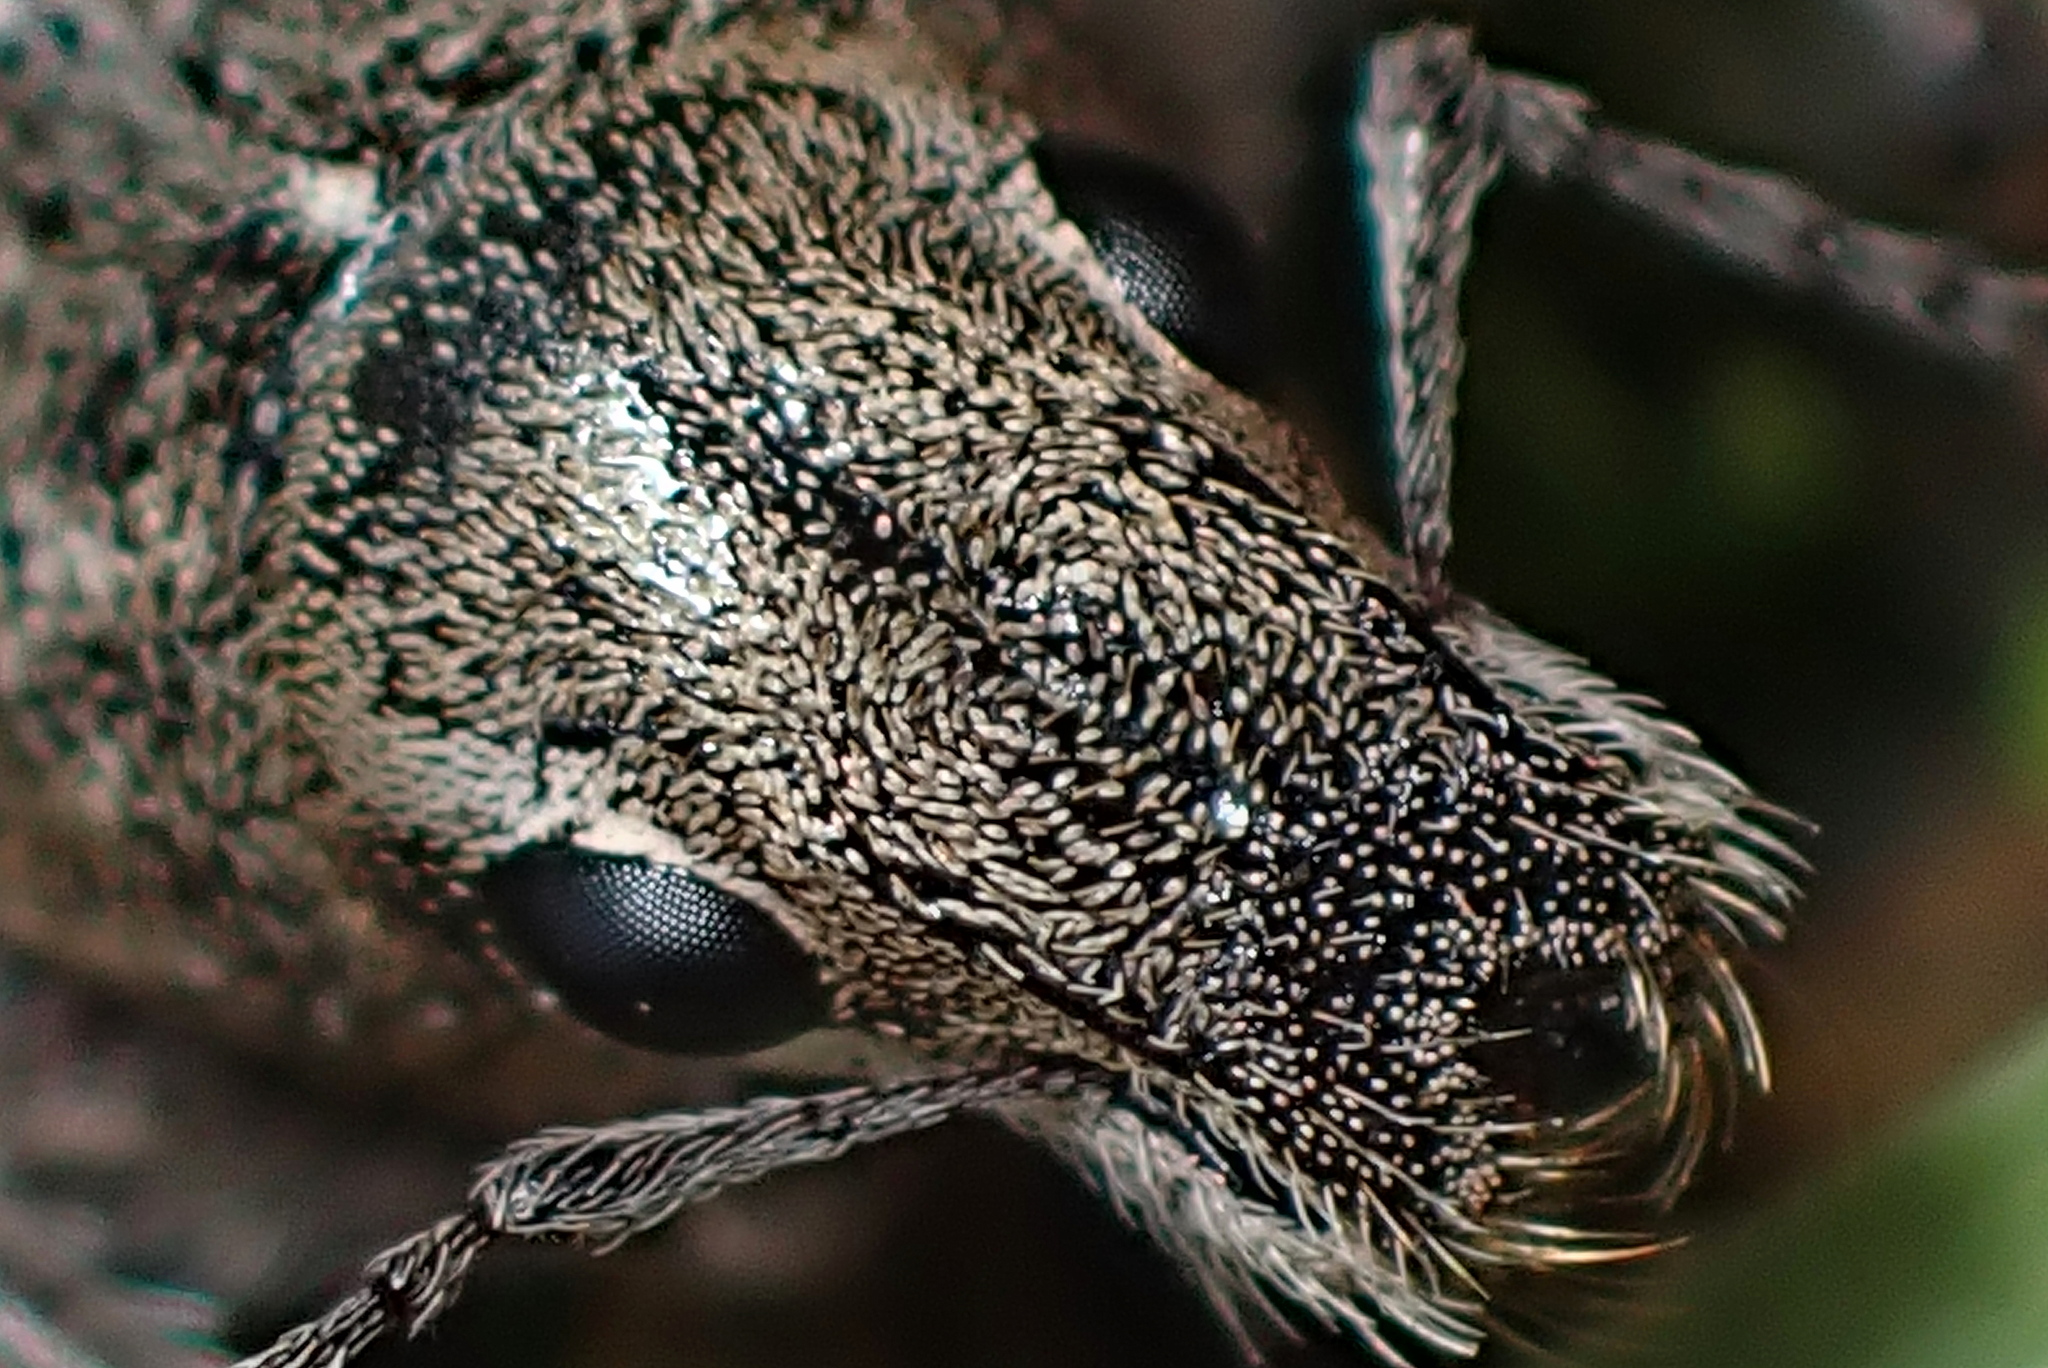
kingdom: Animalia
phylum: Arthropoda
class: Insecta
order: Coleoptera
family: Curculionidae
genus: Naupactus
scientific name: Naupactus leucoloma
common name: Whitefringed beetle
